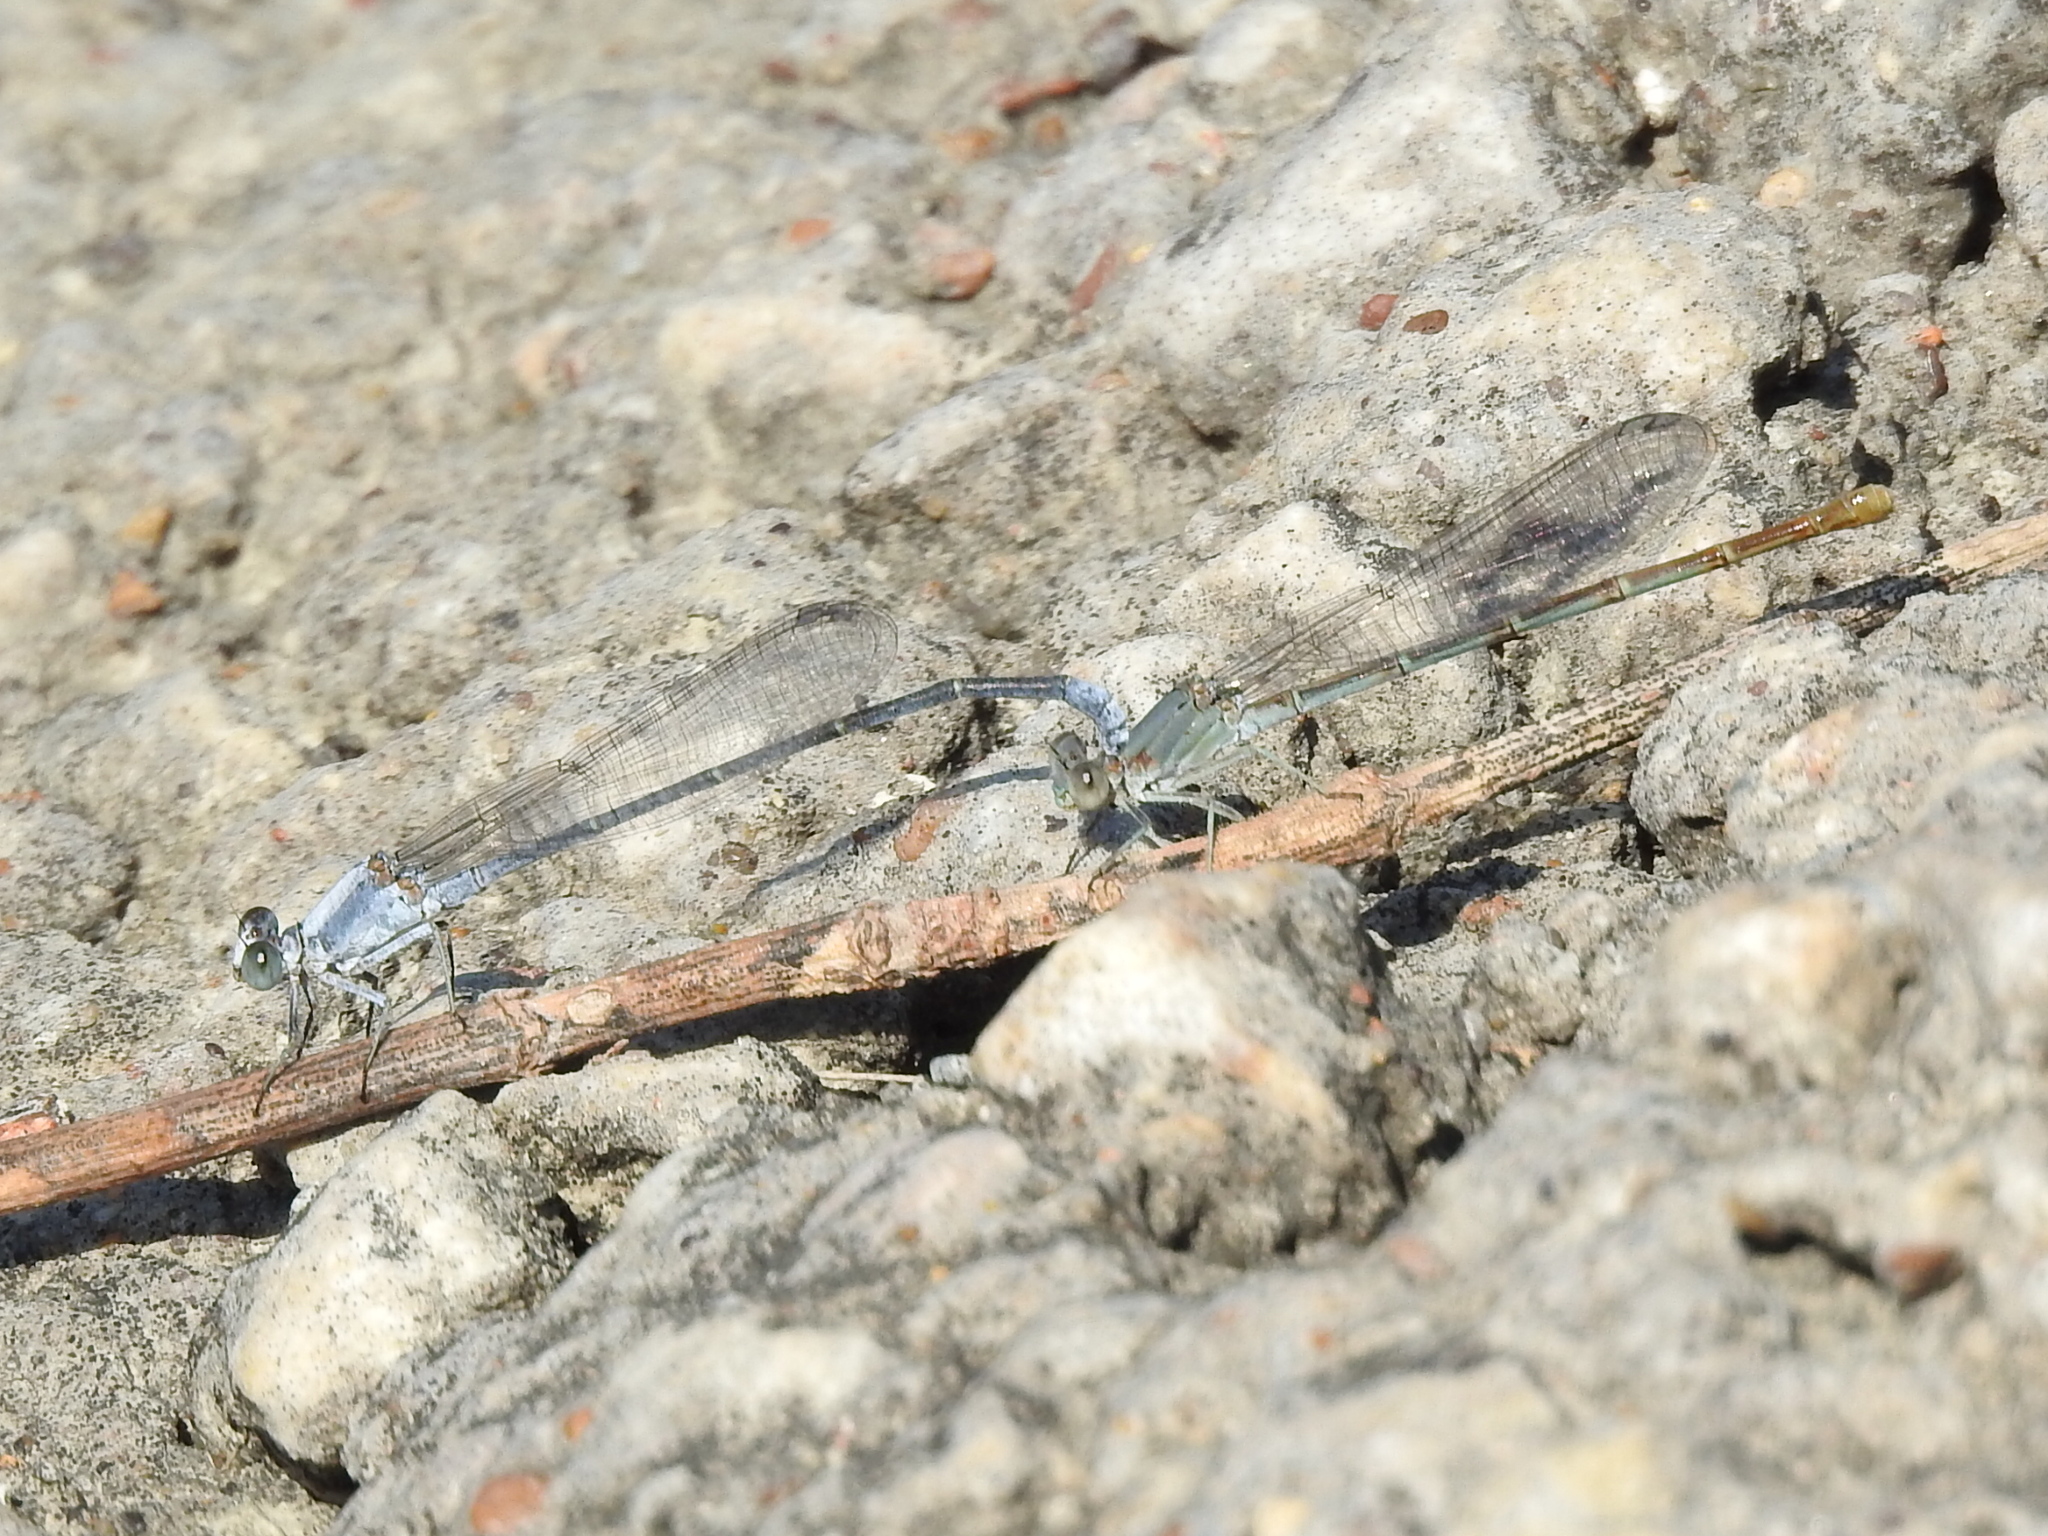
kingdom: Animalia
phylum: Arthropoda
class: Insecta
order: Odonata
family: Coenagrionidae
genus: Argia
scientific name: Argia moesta
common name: Powdered dancer
